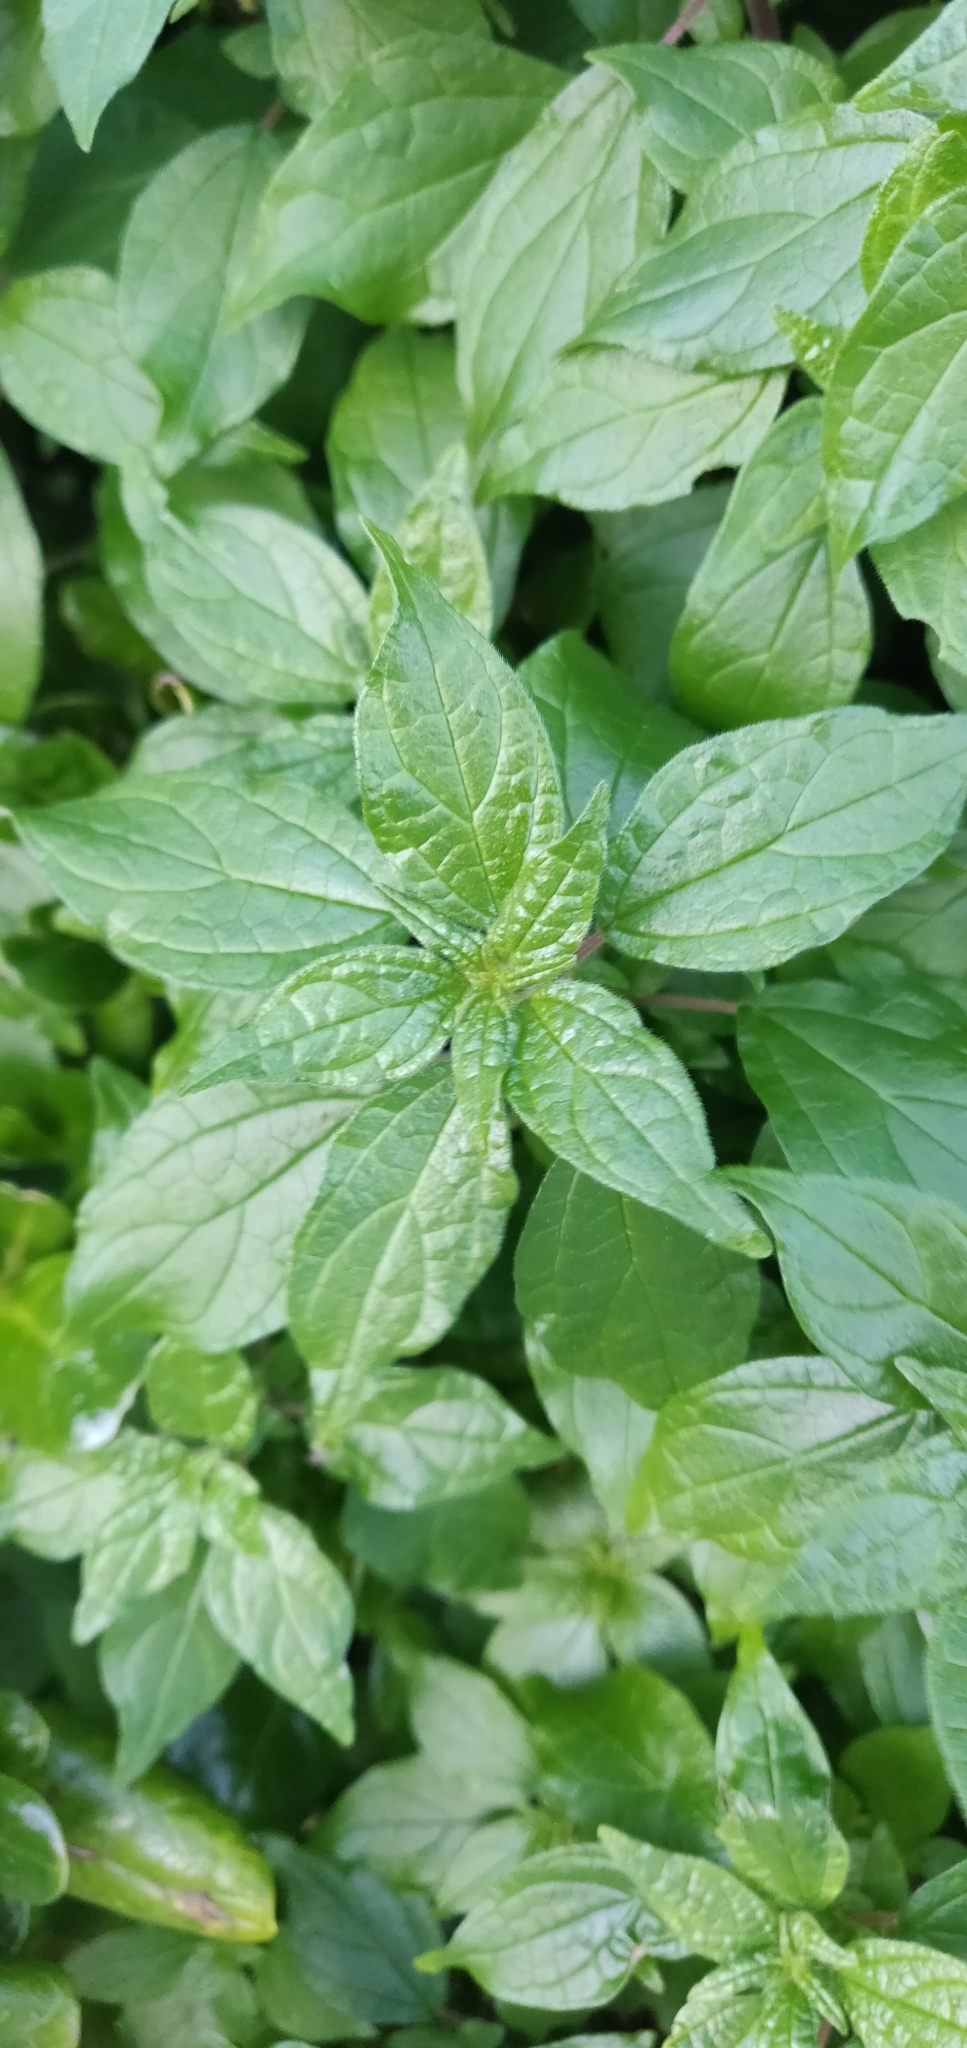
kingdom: Plantae
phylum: Tracheophyta
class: Magnoliopsida
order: Rosales
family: Urticaceae
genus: Parietaria
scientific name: Parietaria judaica
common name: Pellitory-of-the-wall
